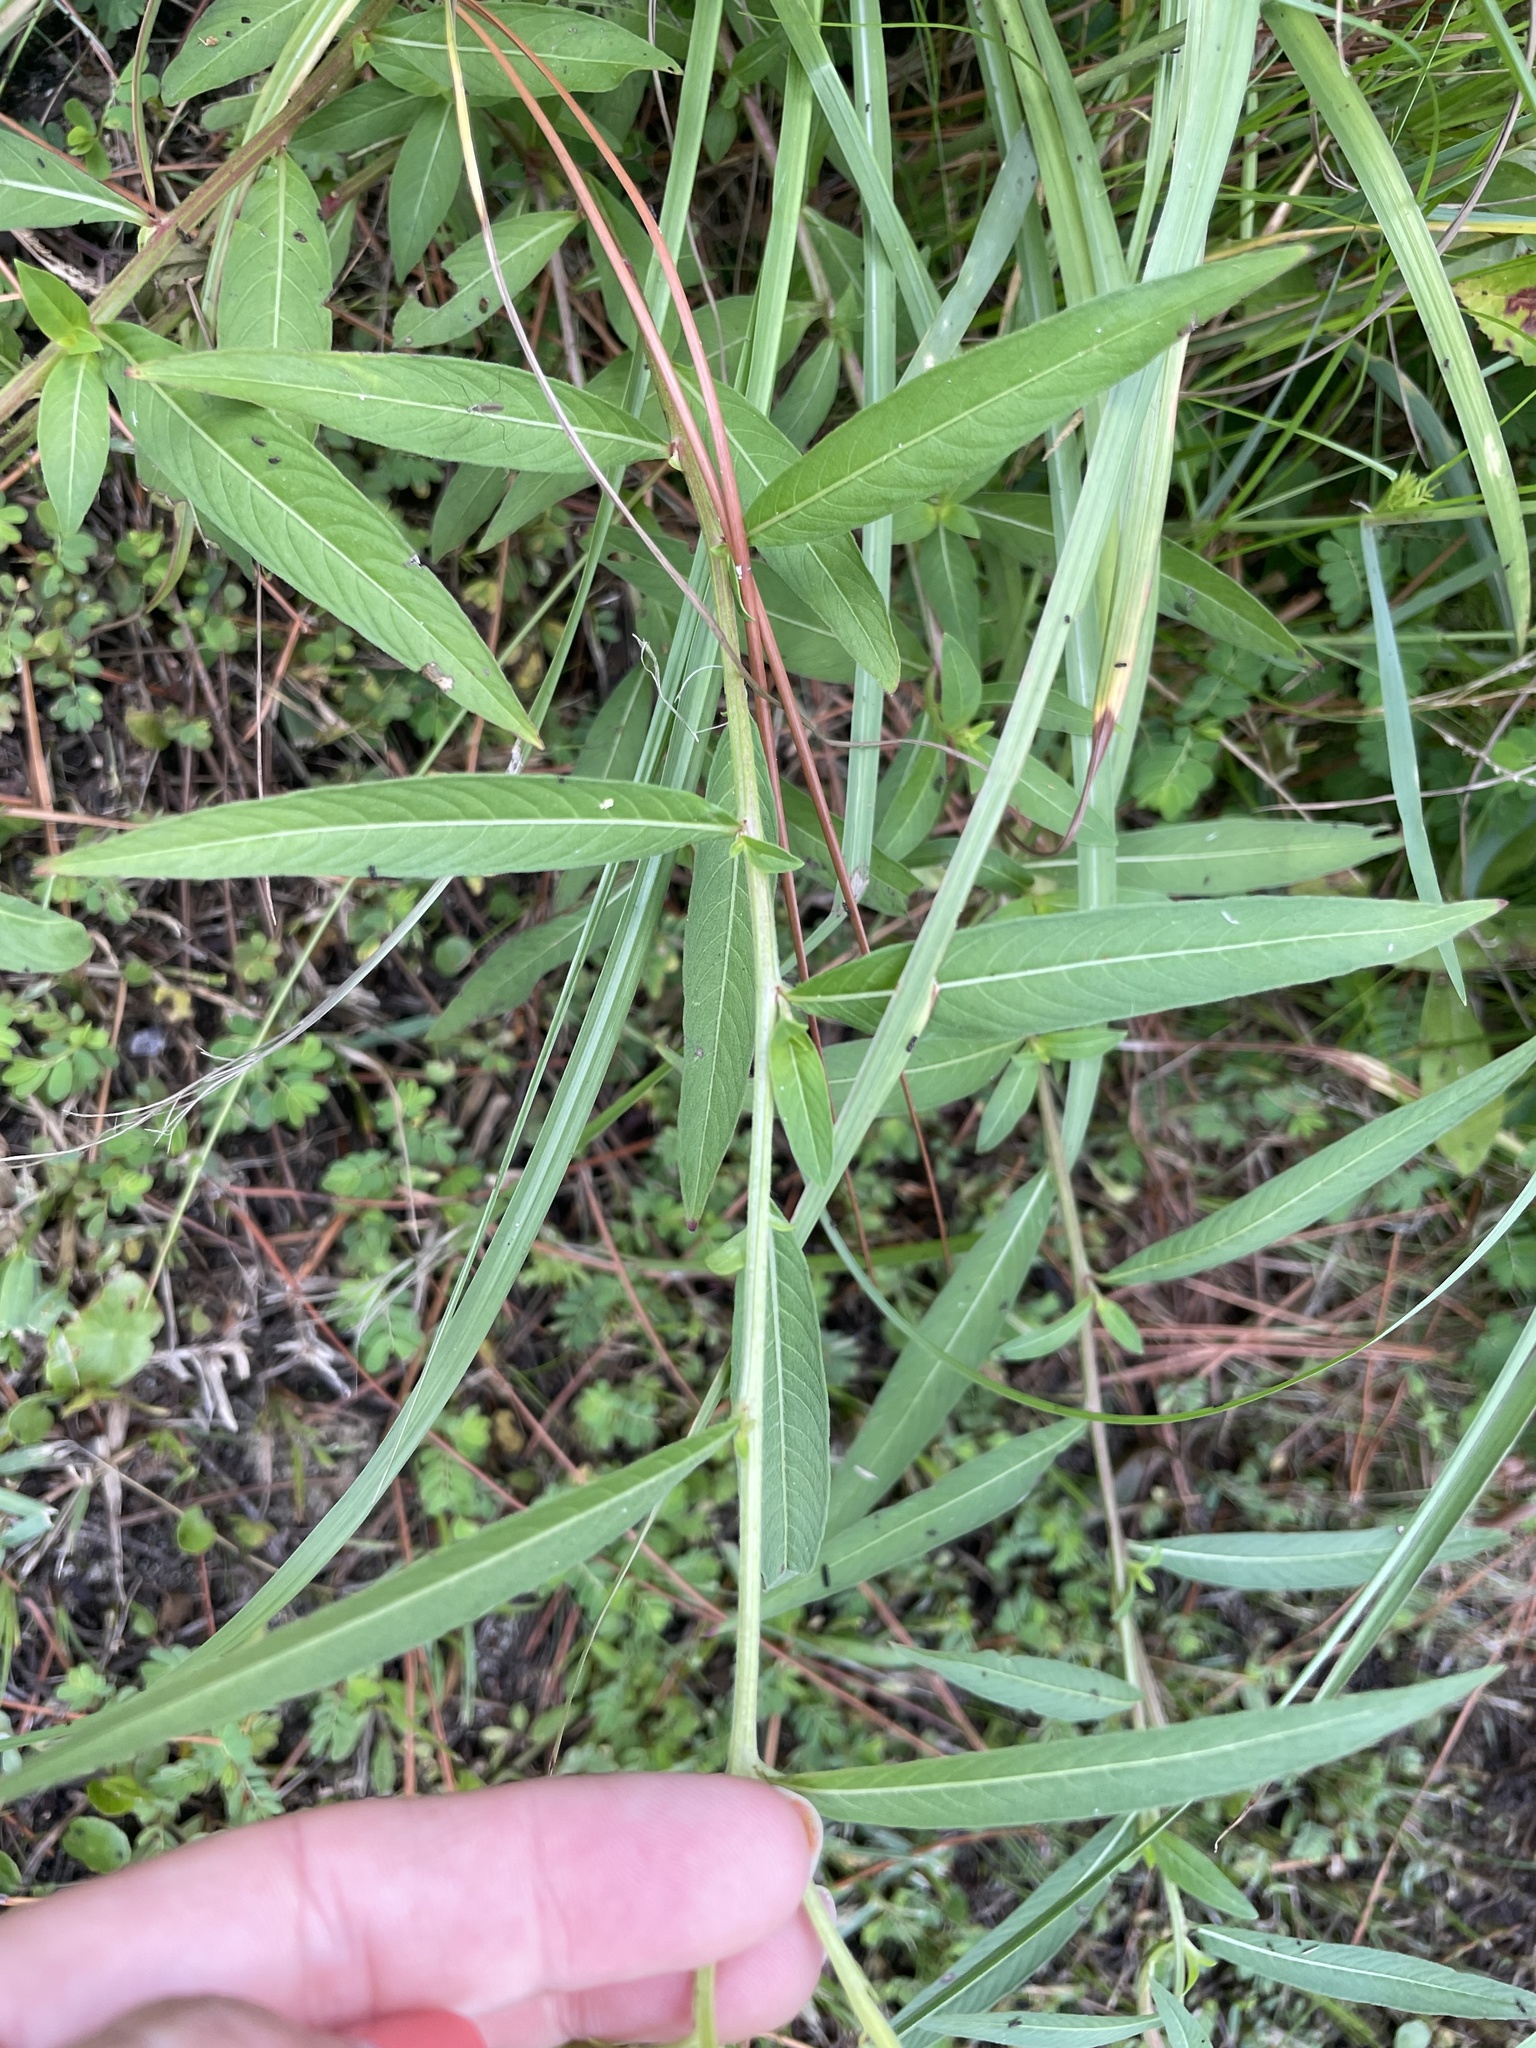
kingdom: Plantae
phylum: Tracheophyta
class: Magnoliopsida
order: Myrtales
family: Onagraceae
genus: Ludwigia
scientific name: Ludwigia octovalvis
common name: Water-primrose
